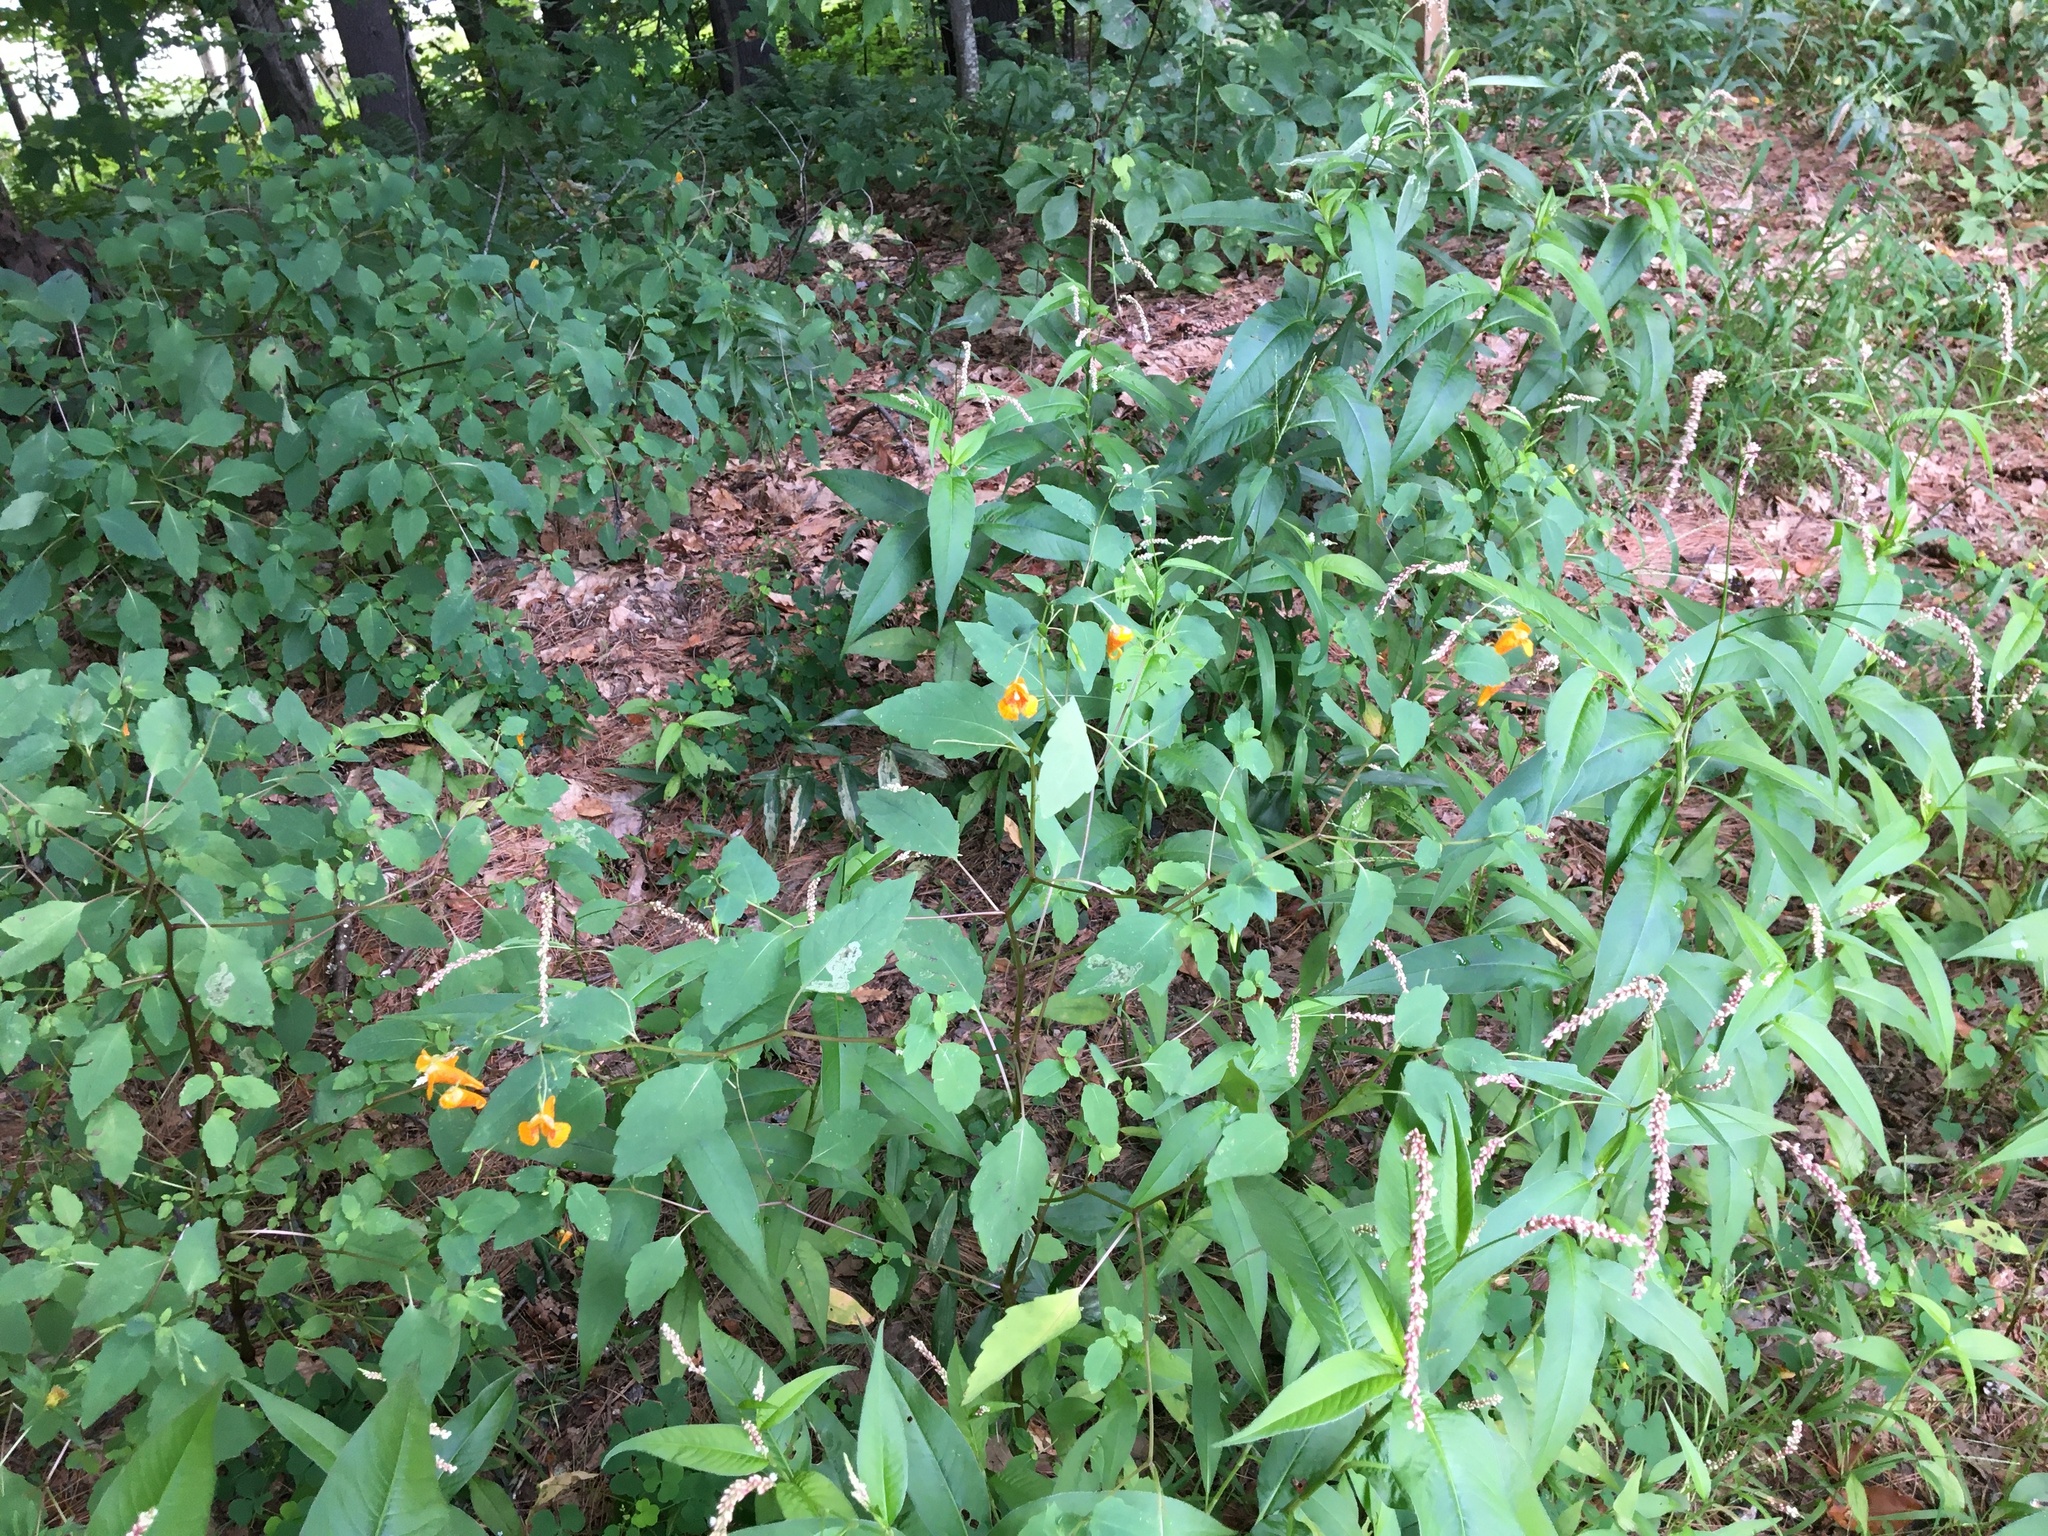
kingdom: Plantae
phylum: Tracheophyta
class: Magnoliopsida
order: Ericales
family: Balsaminaceae
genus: Impatiens
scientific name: Impatiens capensis
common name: Orange balsam
